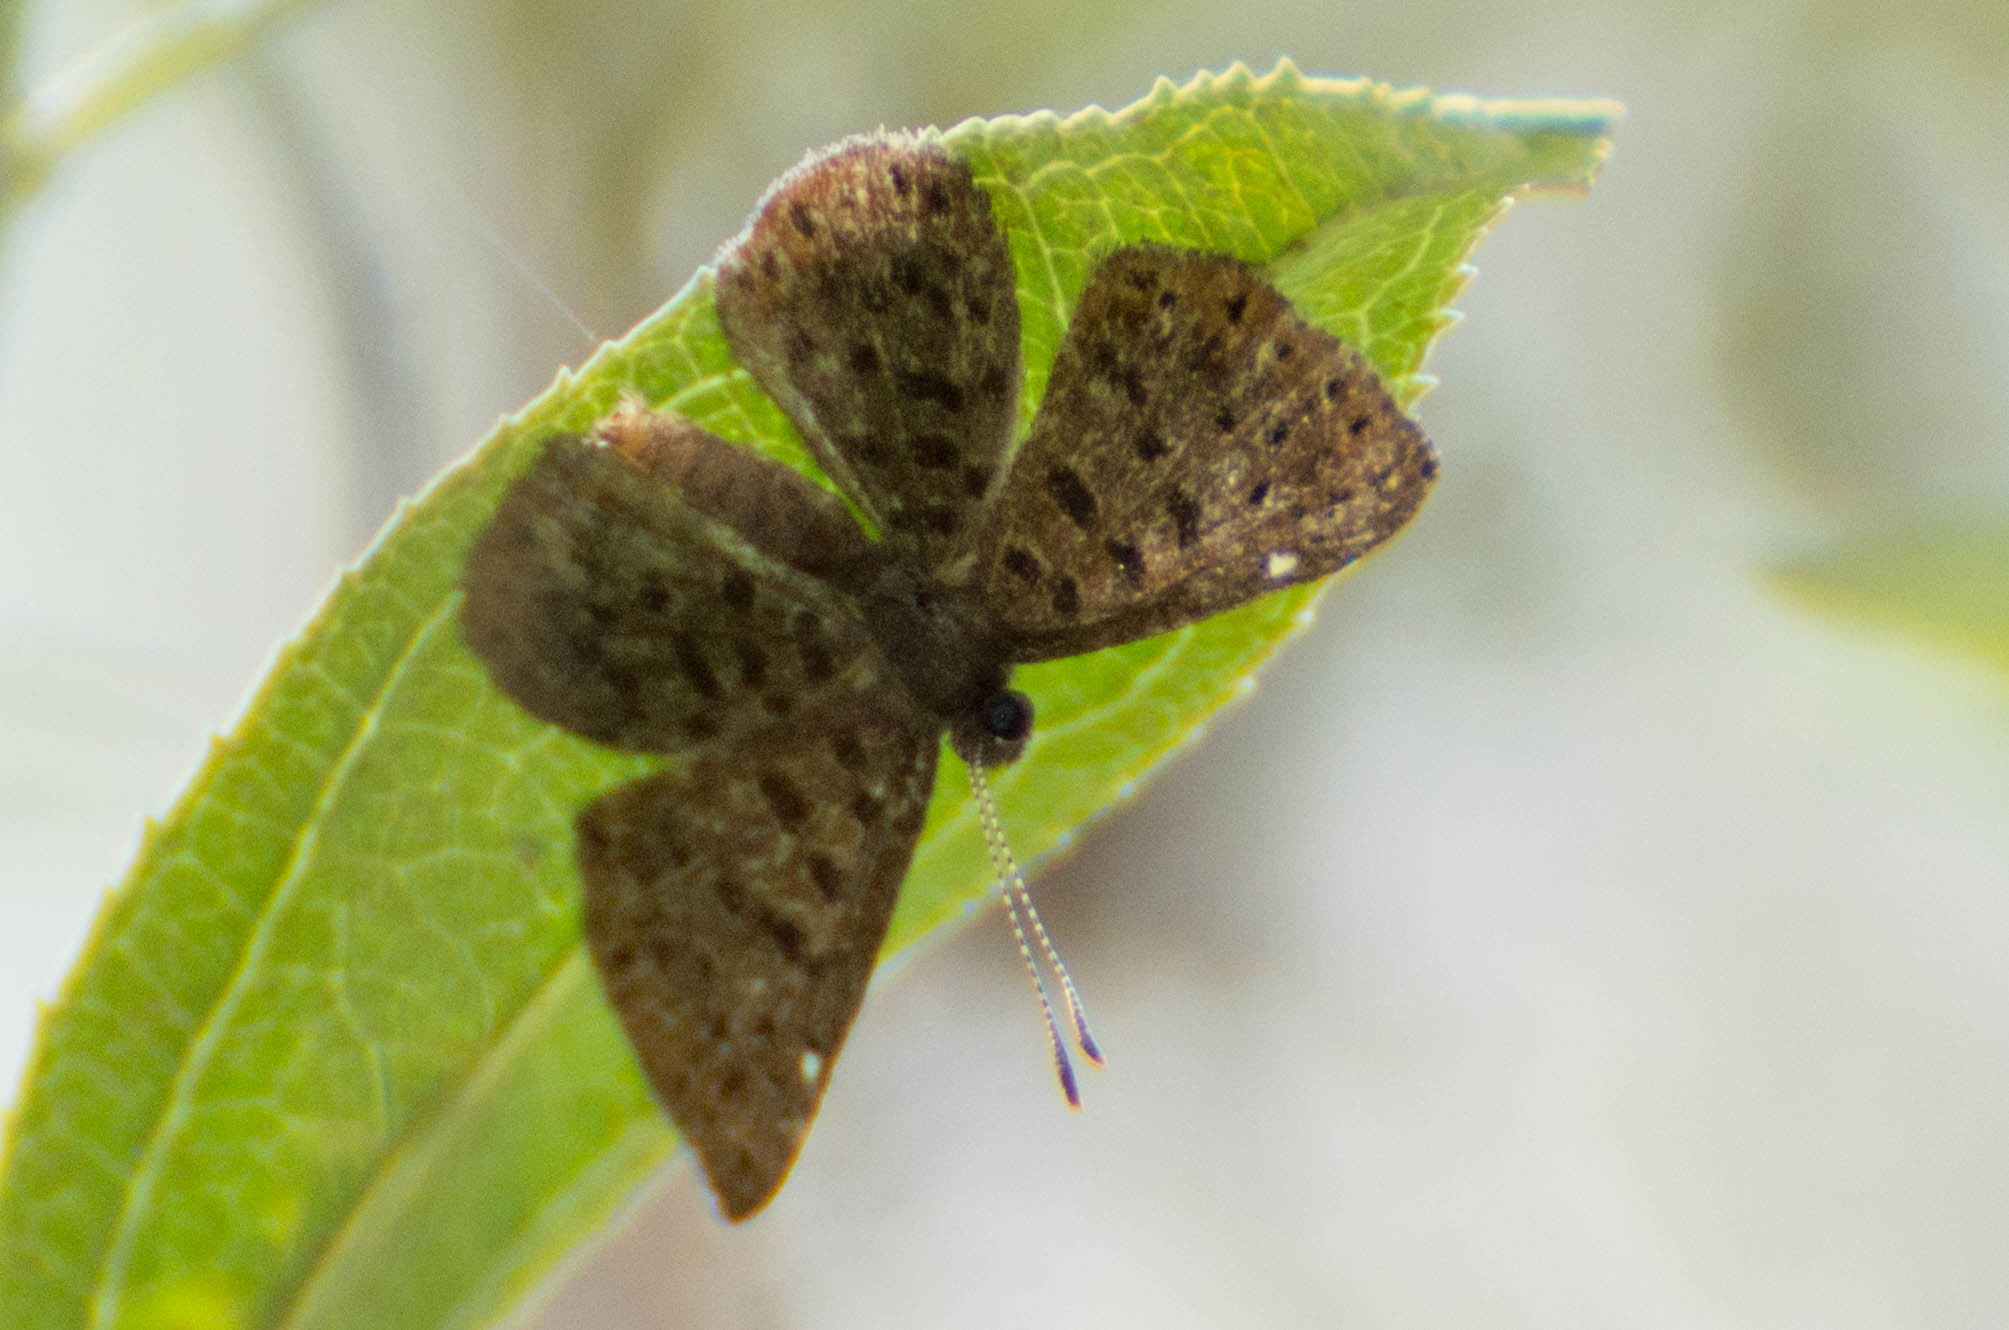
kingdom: Animalia
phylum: Arthropoda
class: Insecta
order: Lepidoptera
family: Riodinidae
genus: Teenie
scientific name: Teenie tinea
